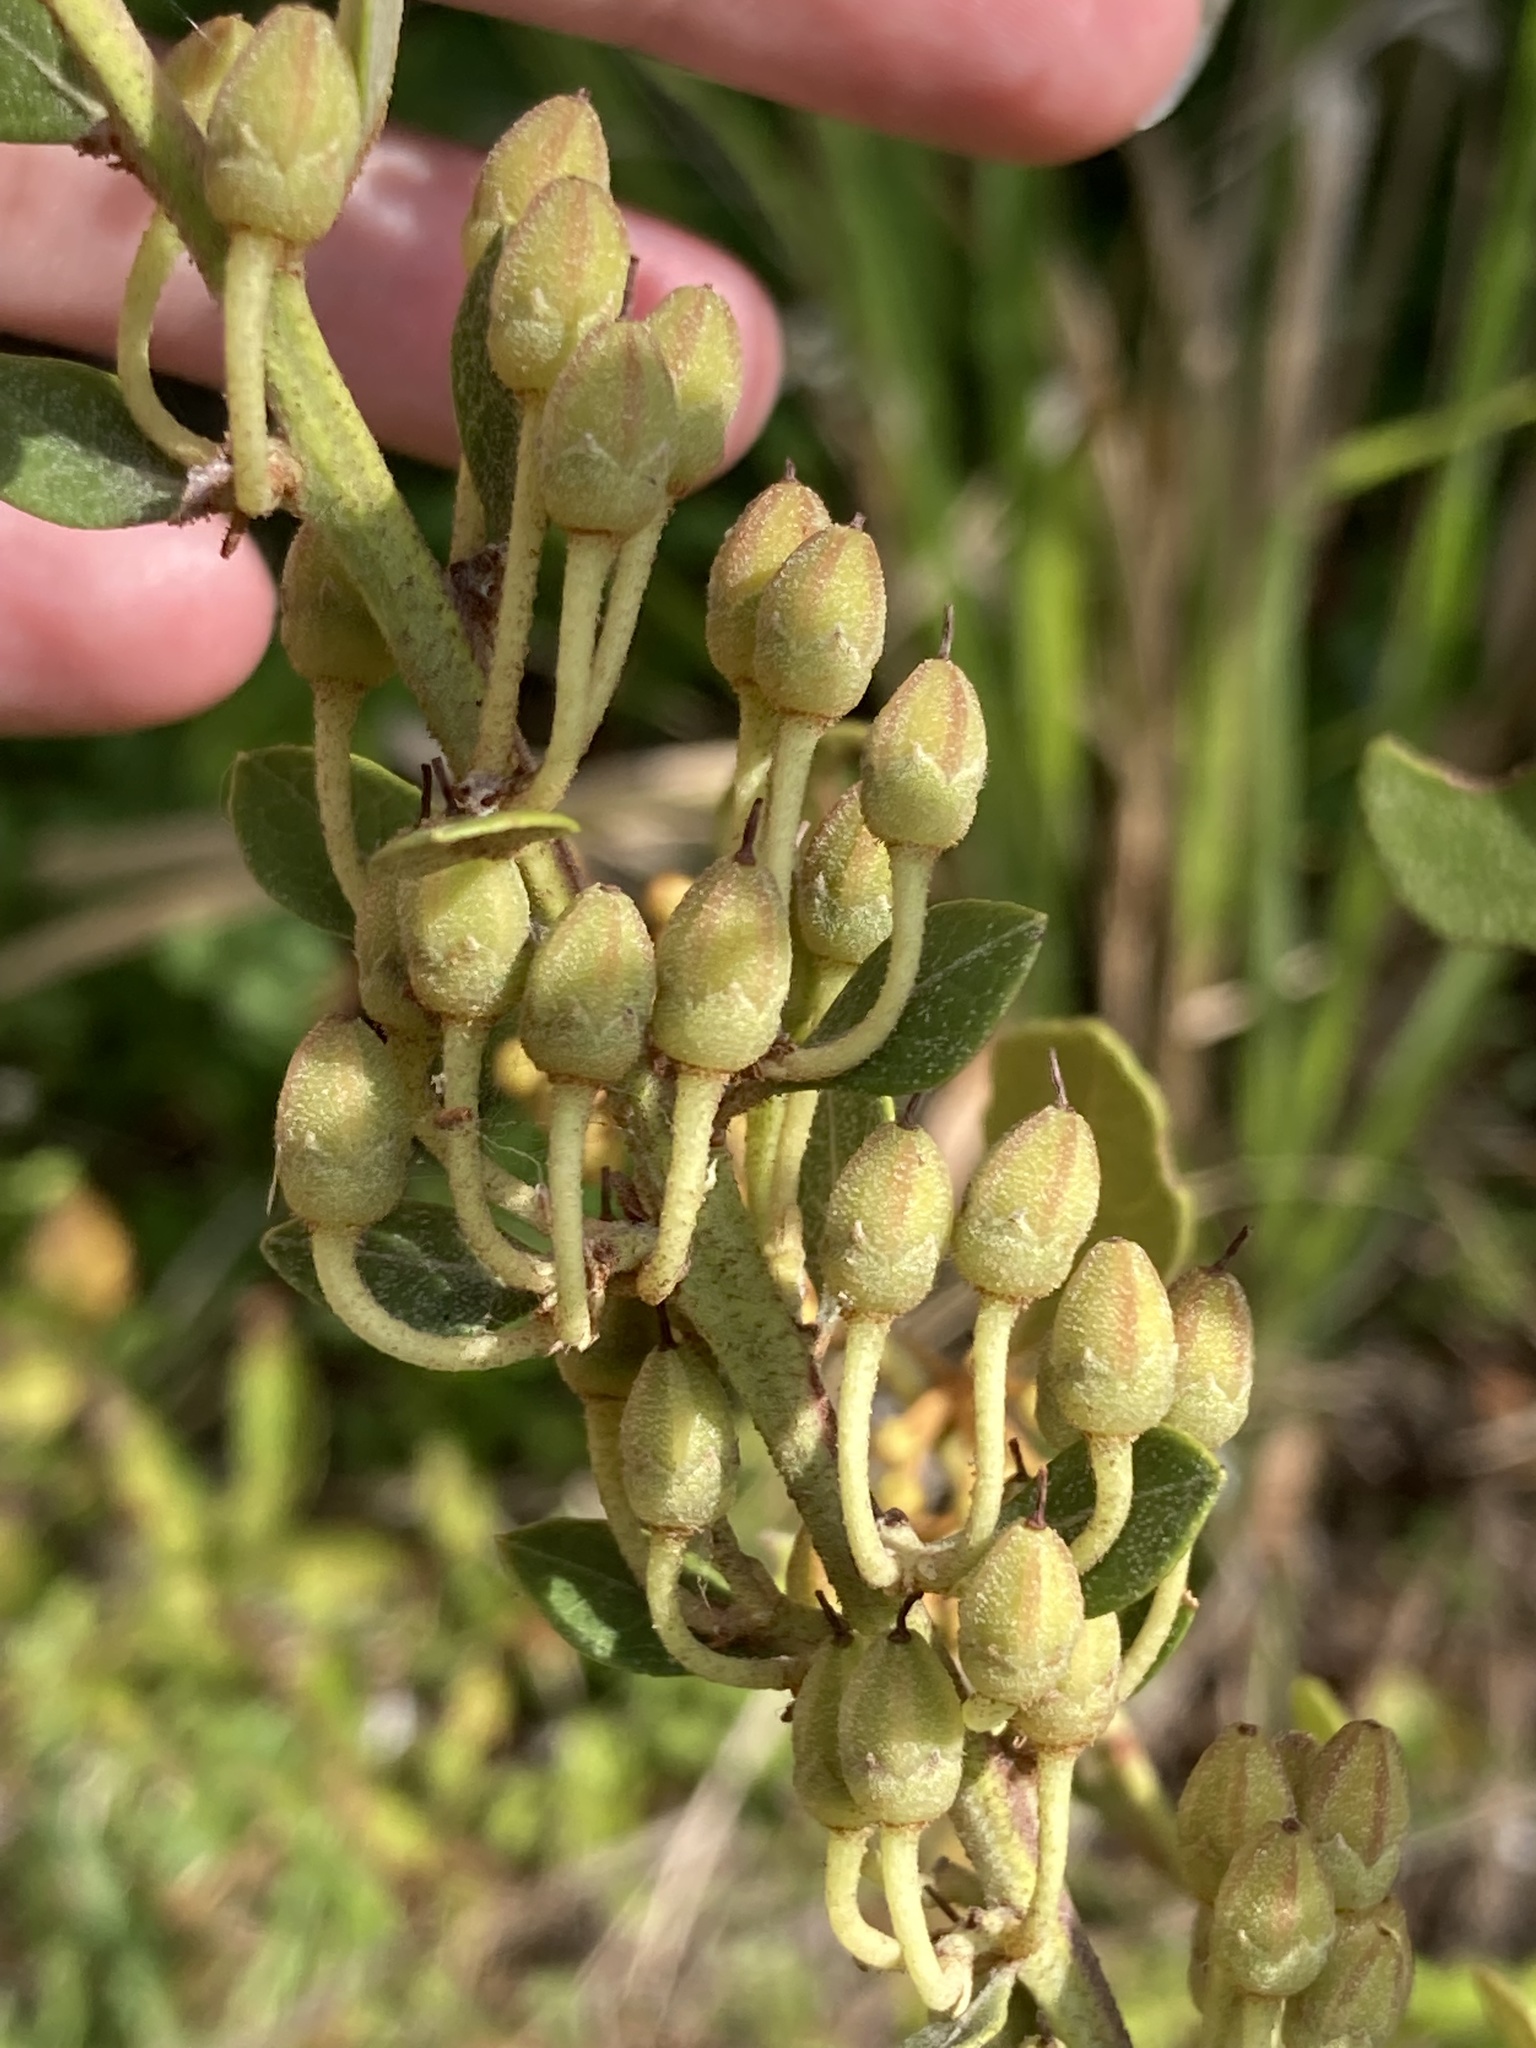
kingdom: Plantae
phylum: Tracheophyta
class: Magnoliopsida
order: Ericales
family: Ericaceae
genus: Lyonia
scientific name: Lyonia fruticosa
